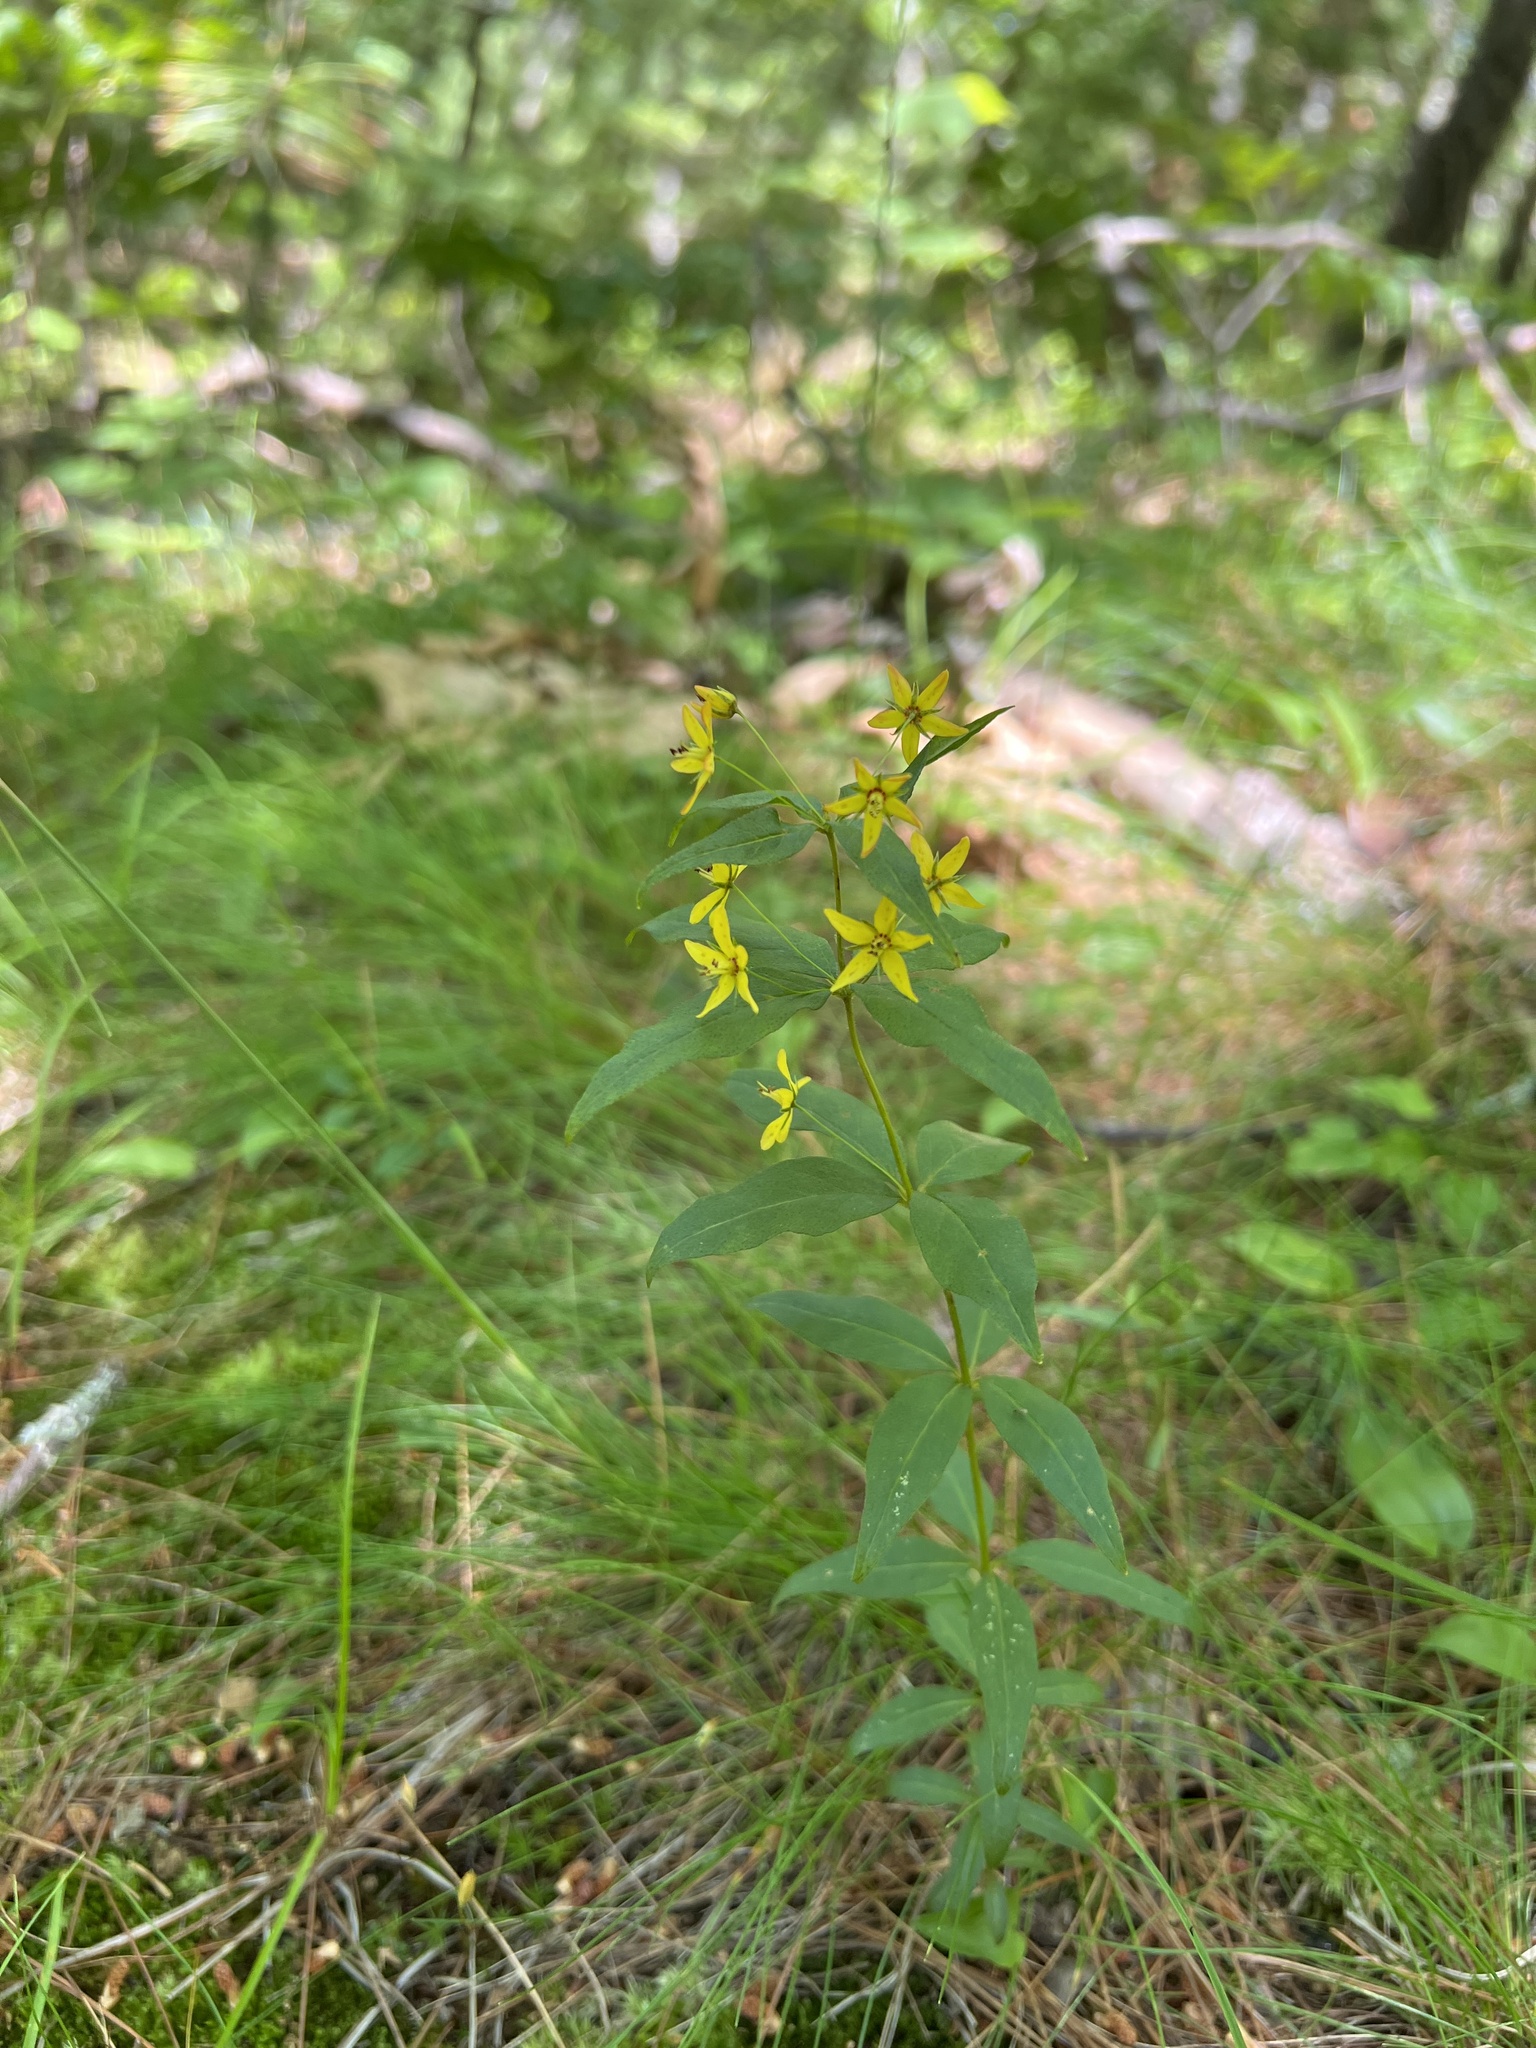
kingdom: Plantae
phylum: Tracheophyta
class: Magnoliopsida
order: Ericales
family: Primulaceae
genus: Lysimachia
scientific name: Lysimachia quadrifolia
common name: Whorled loosestrife
